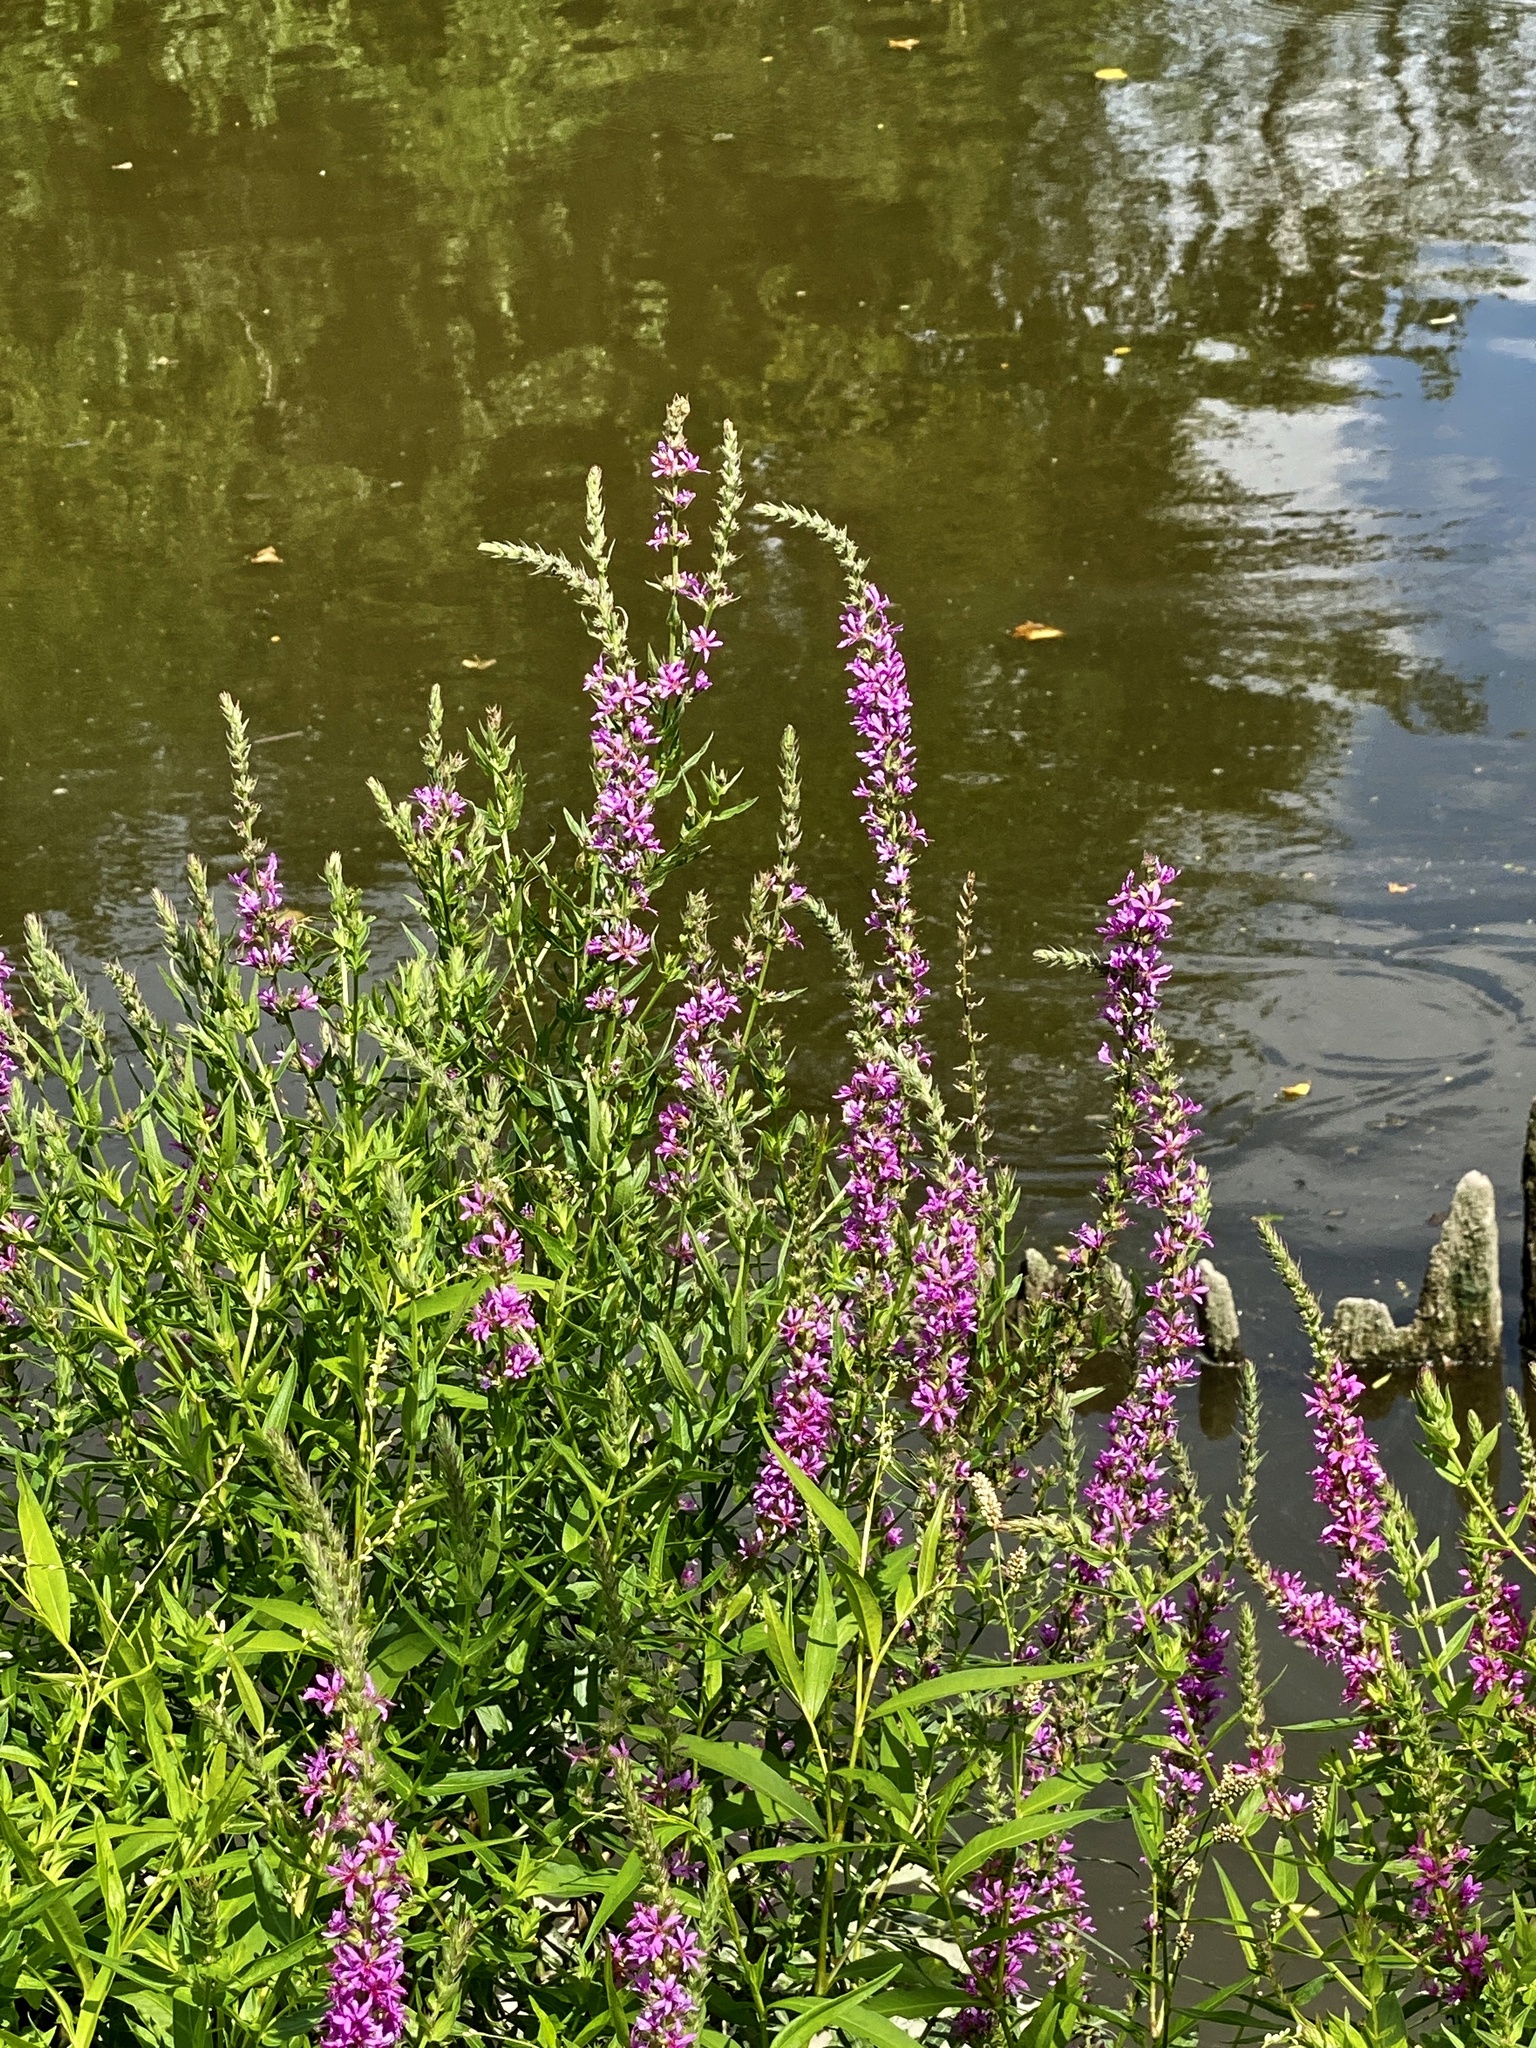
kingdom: Plantae
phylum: Tracheophyta
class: Magnoliopsida
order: Myrtales
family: Lythraceae
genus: Lythrum
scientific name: Lythrum salicaria
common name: Purple loosestrife
